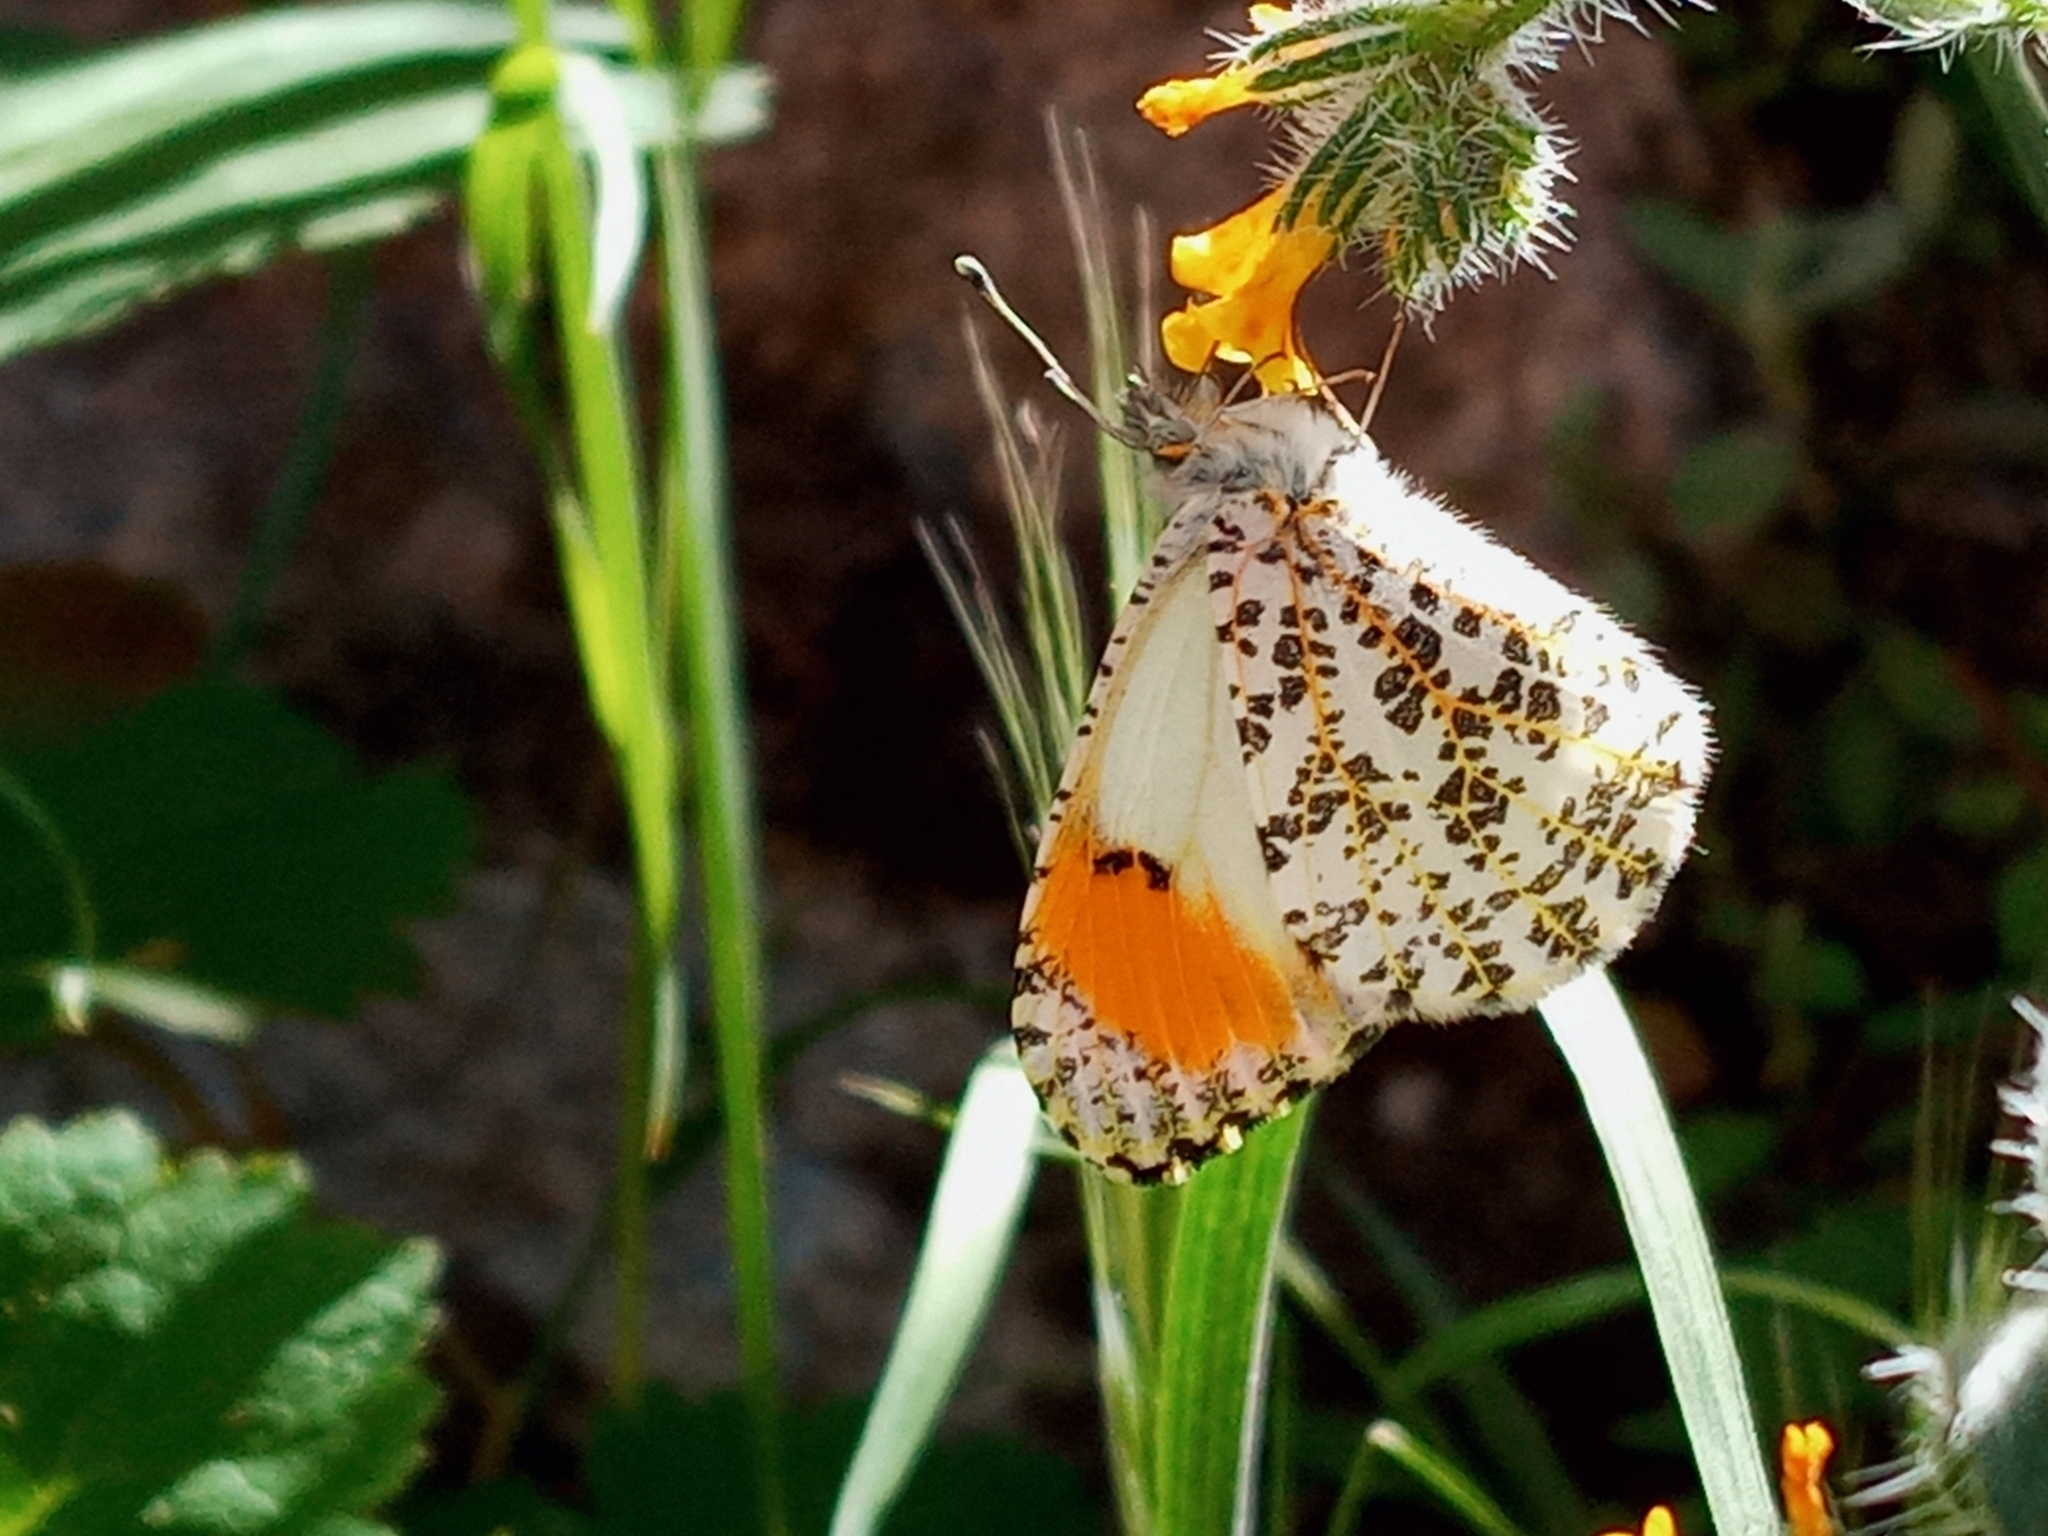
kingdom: Animalia
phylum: Arthropoda
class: Insecta
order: Lepidoptera
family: Pieridae
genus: Anthocharis
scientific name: Anthocharis sara
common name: Sara's orangetip
